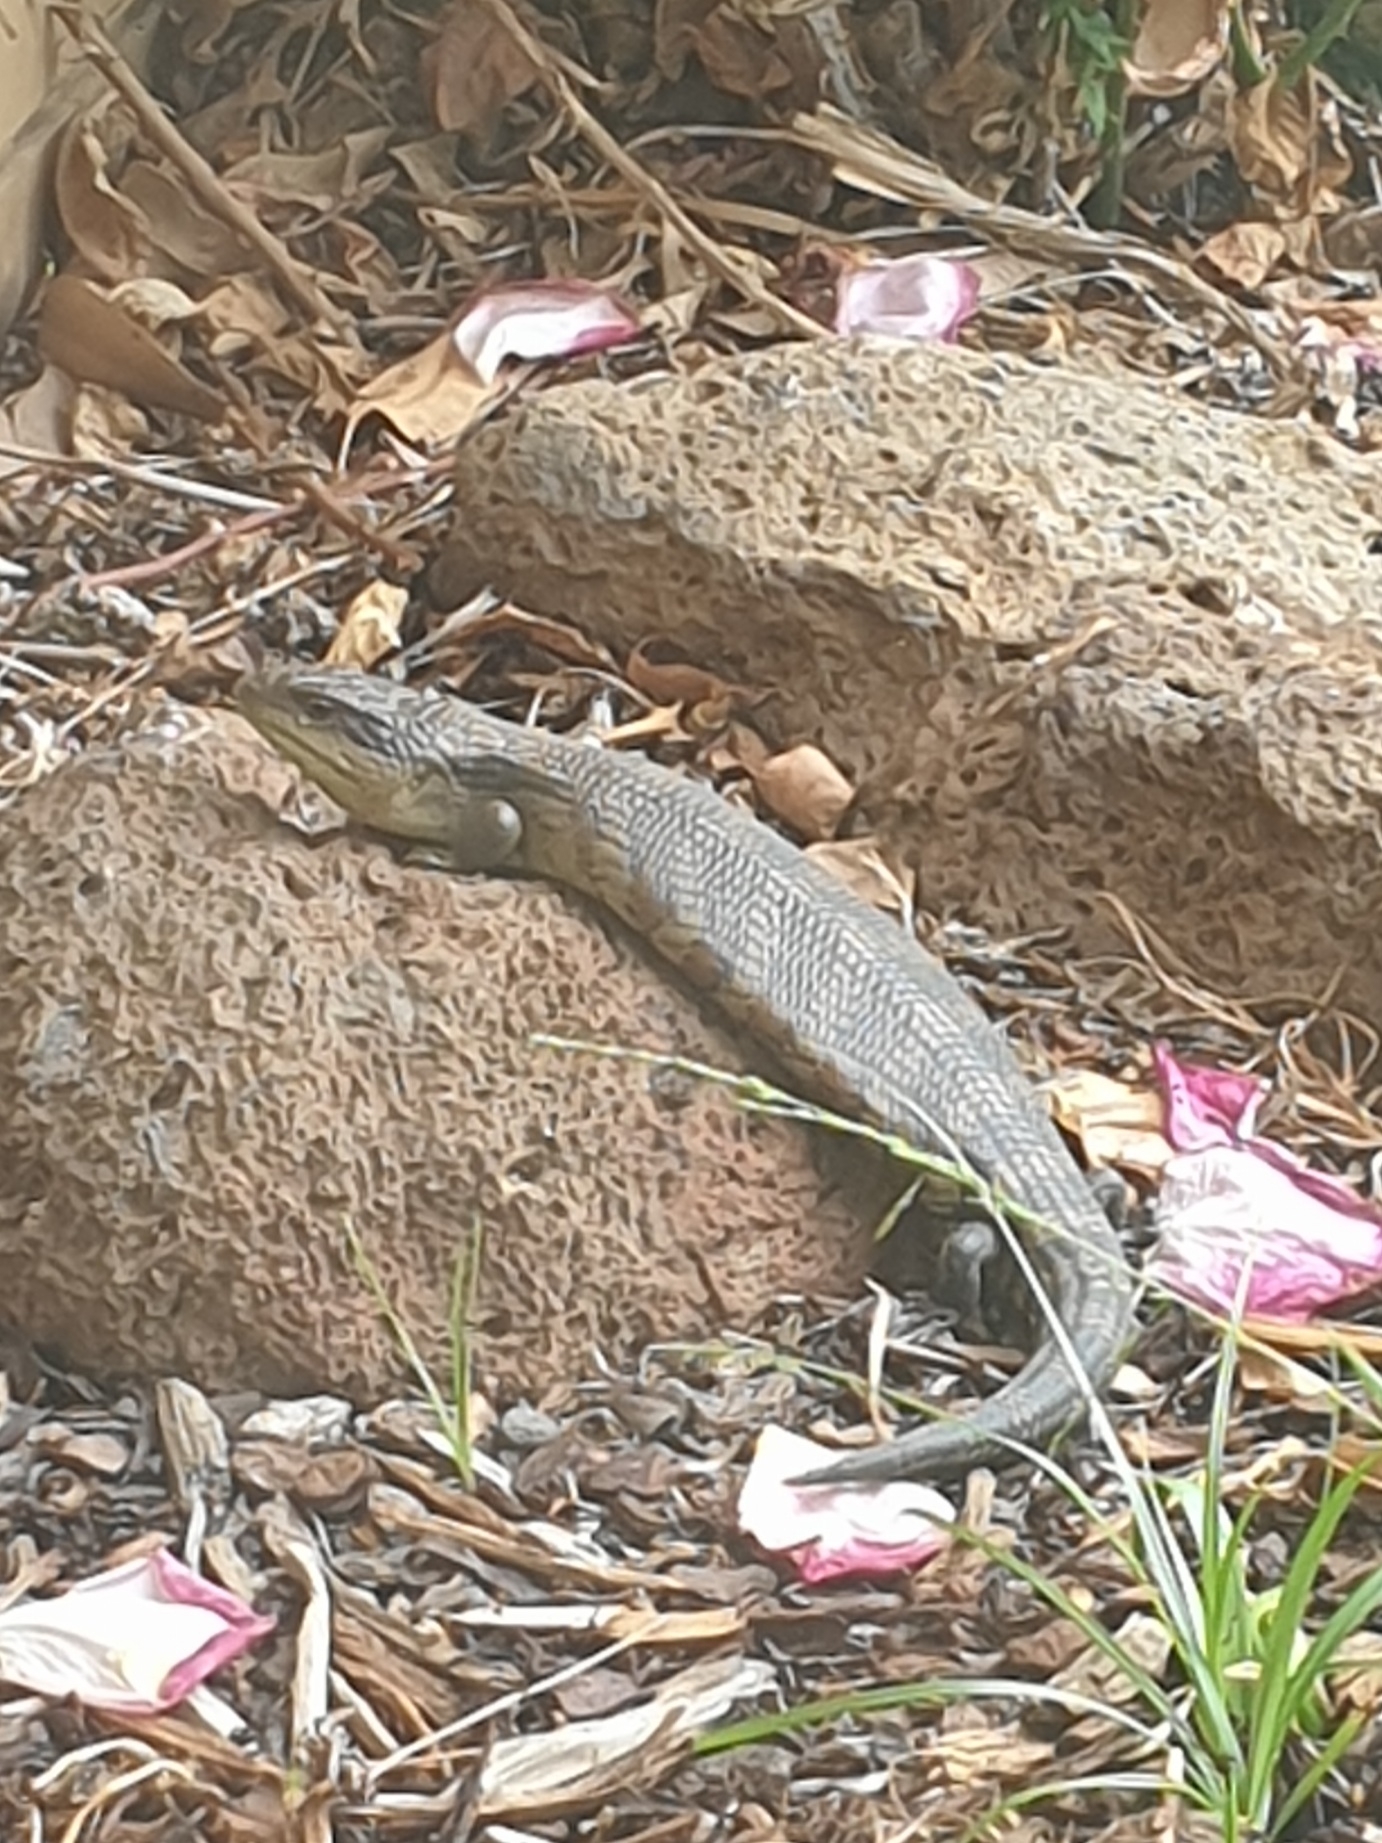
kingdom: Animalia
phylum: Chordata
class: Squamata
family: Scincidae
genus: Tiliqua
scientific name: Tiliqua scincoides
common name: Common bluetongue
